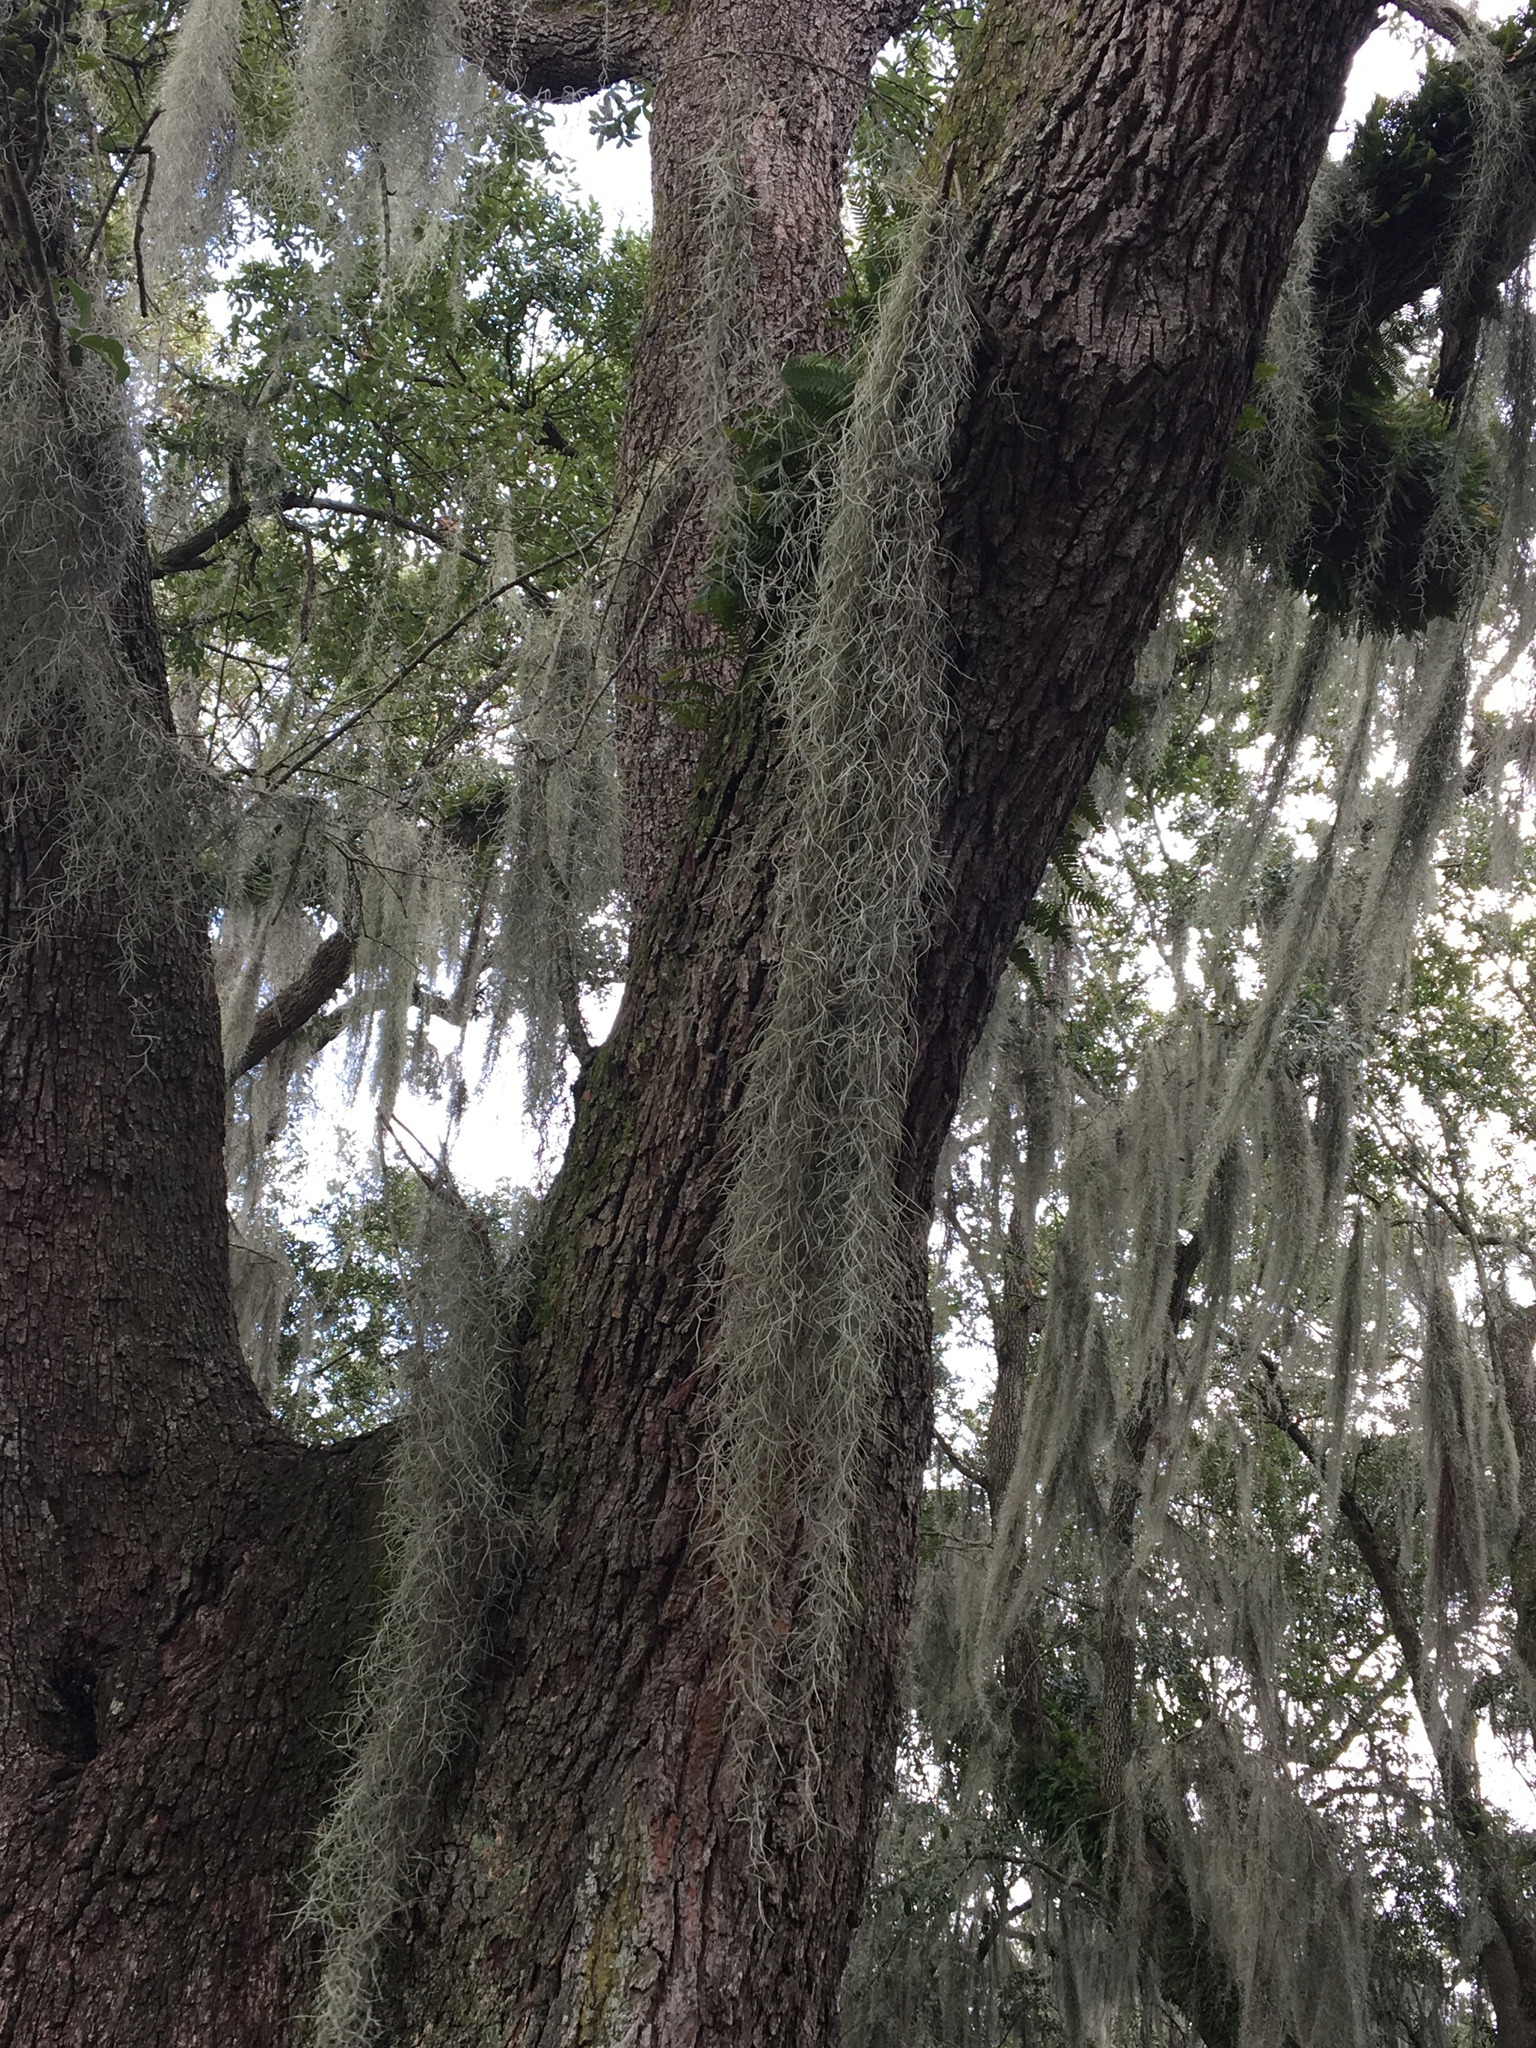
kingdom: Plantae
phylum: Tracheophyta
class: Liliopsida
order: Poales
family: Bromeliaceae
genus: Tillandsia
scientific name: Tillandsia usneoides
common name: Spanish moss
